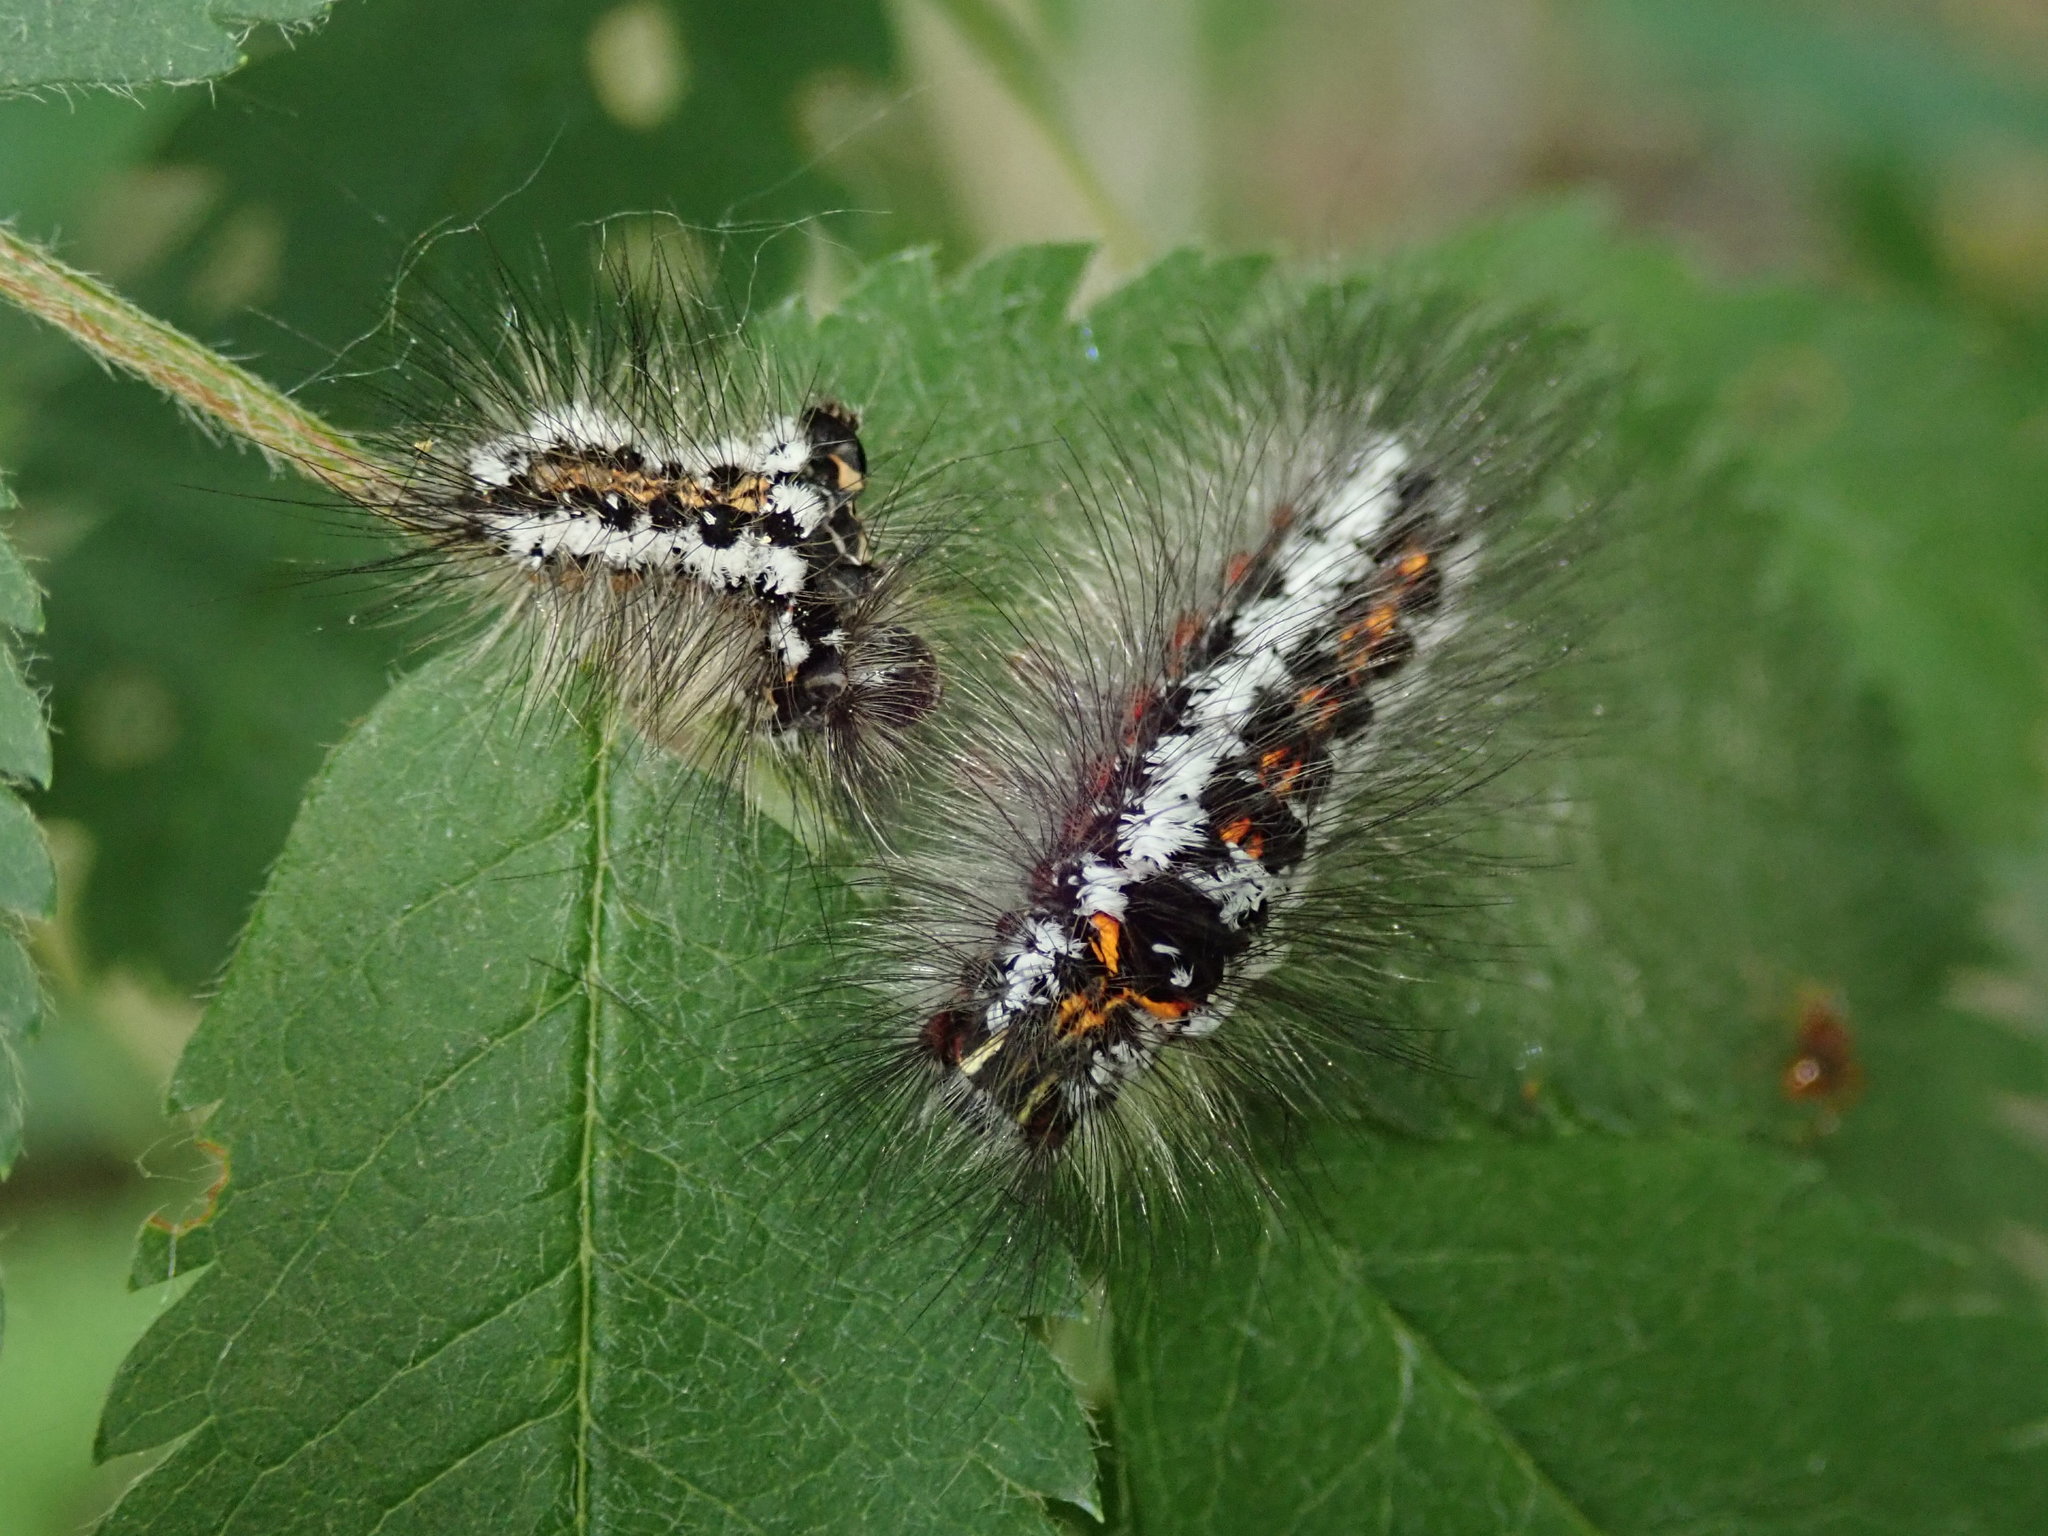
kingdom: Animalia
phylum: Arthropoda
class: Insecta
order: Lepidoptera
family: Erebidae
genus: Sphrageidus
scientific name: Sphrageidus similis
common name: Yellow-tail
